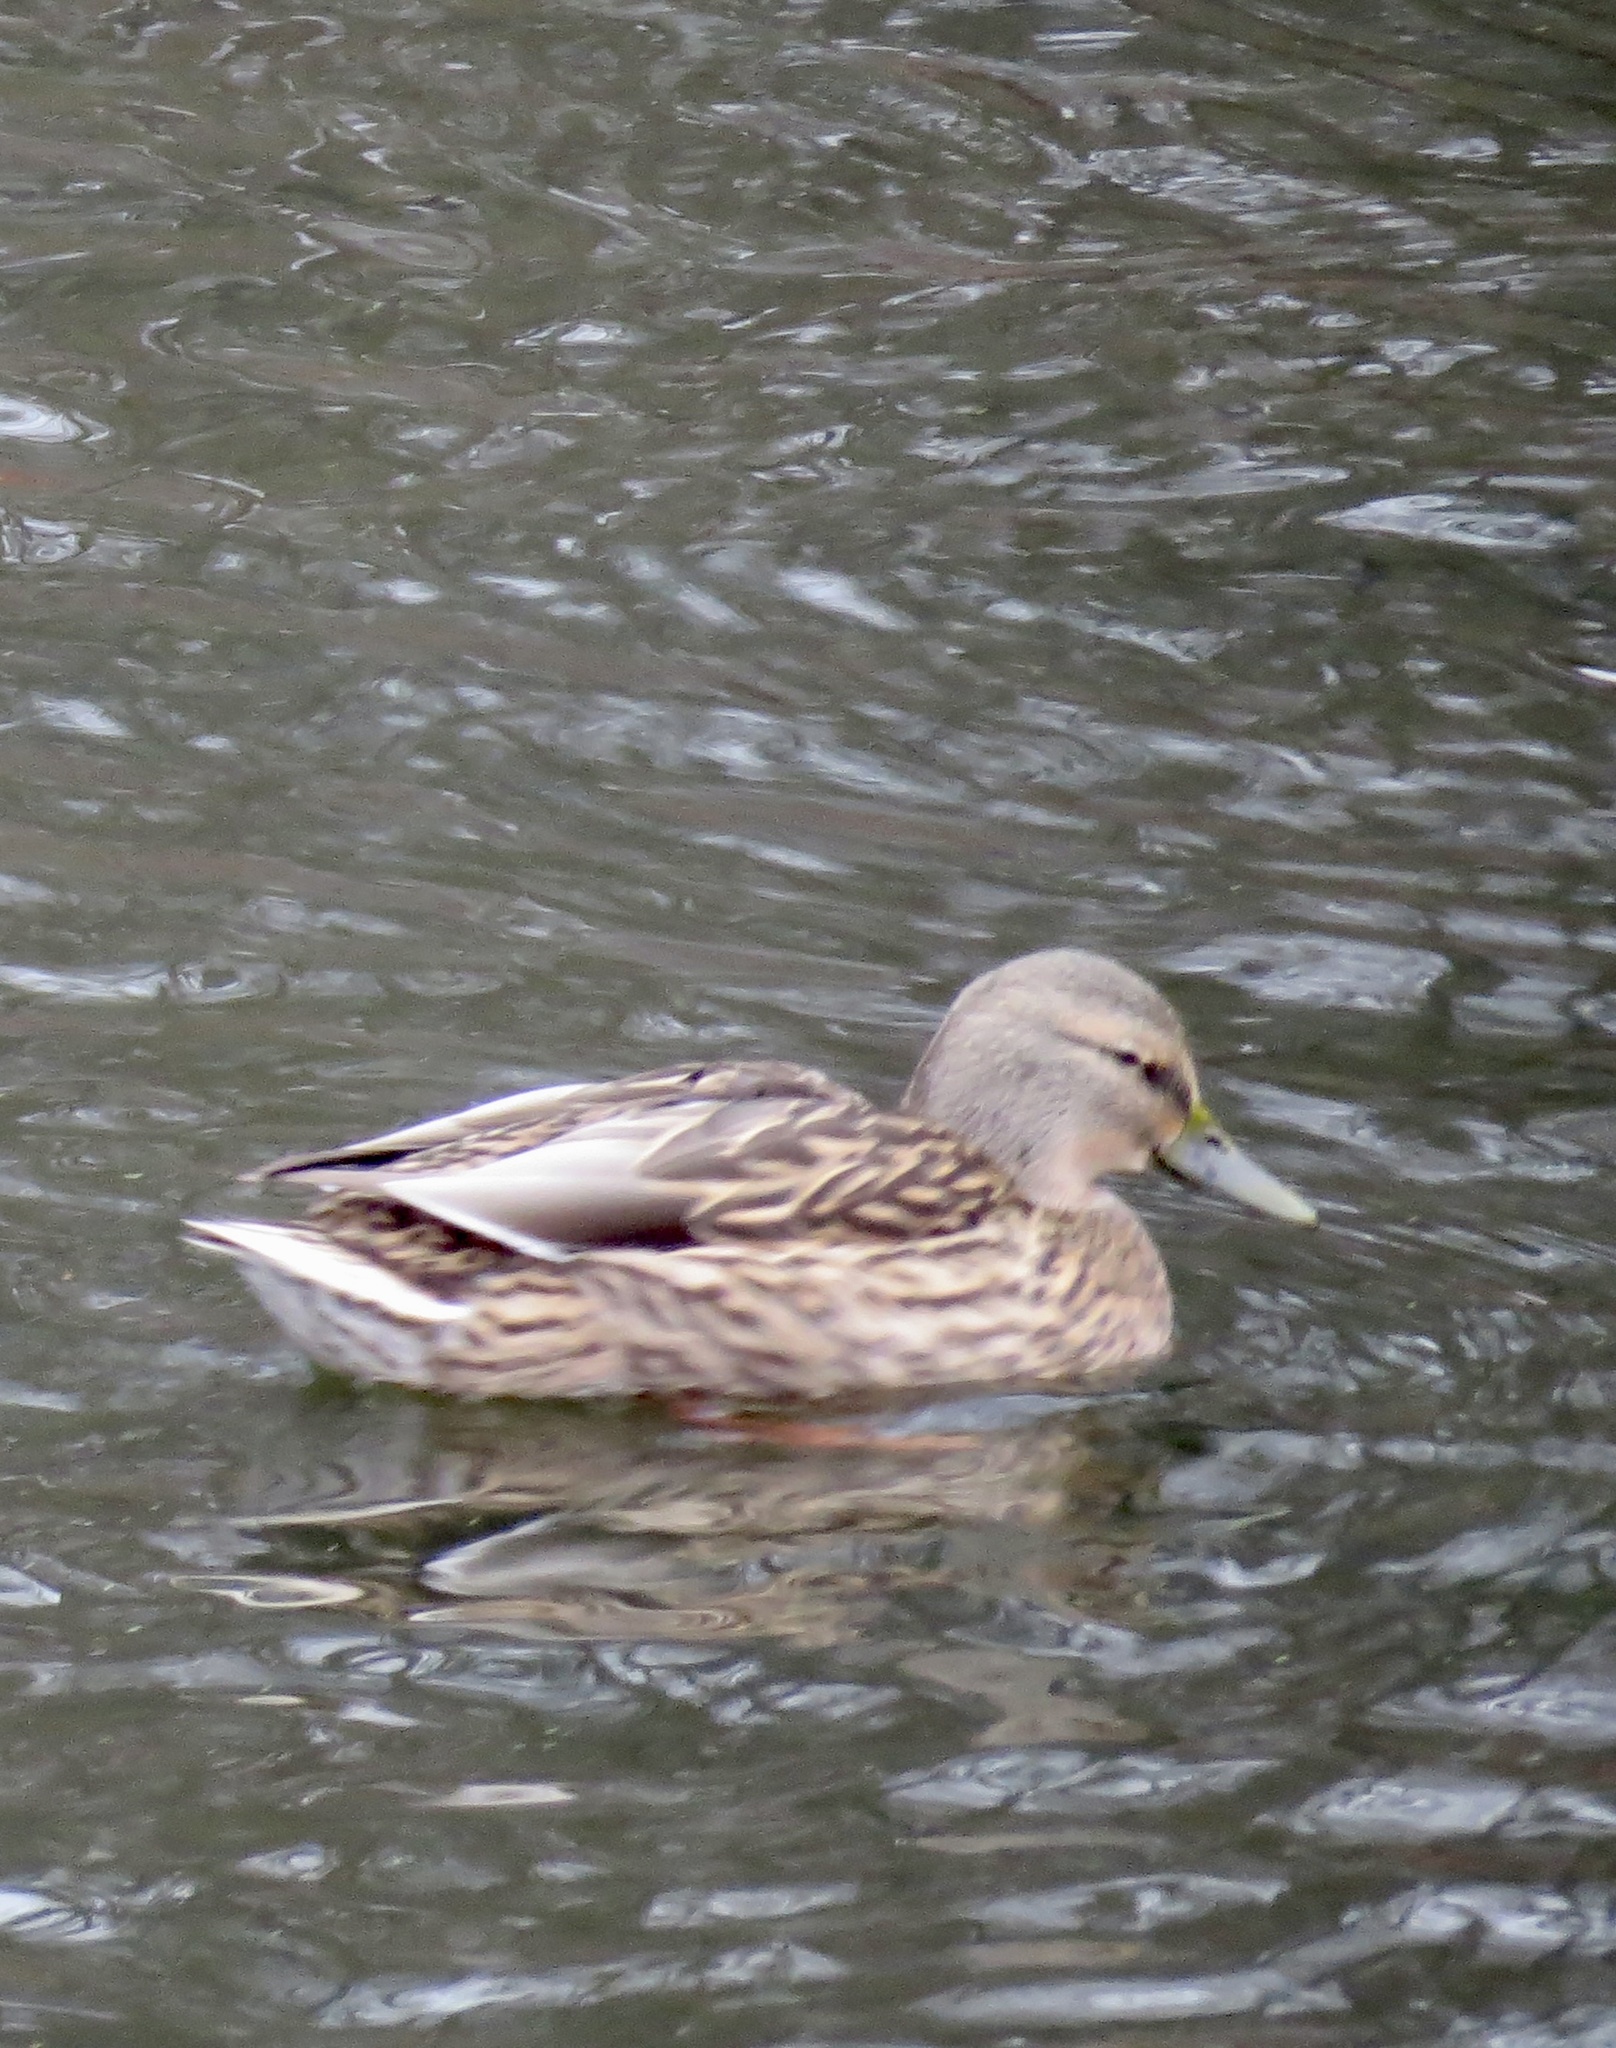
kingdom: Animalia
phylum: Chordata
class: Aves
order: Anseriformes
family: Anatidae
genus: Anas
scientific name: Anas platyrhynchos
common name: Mallard
